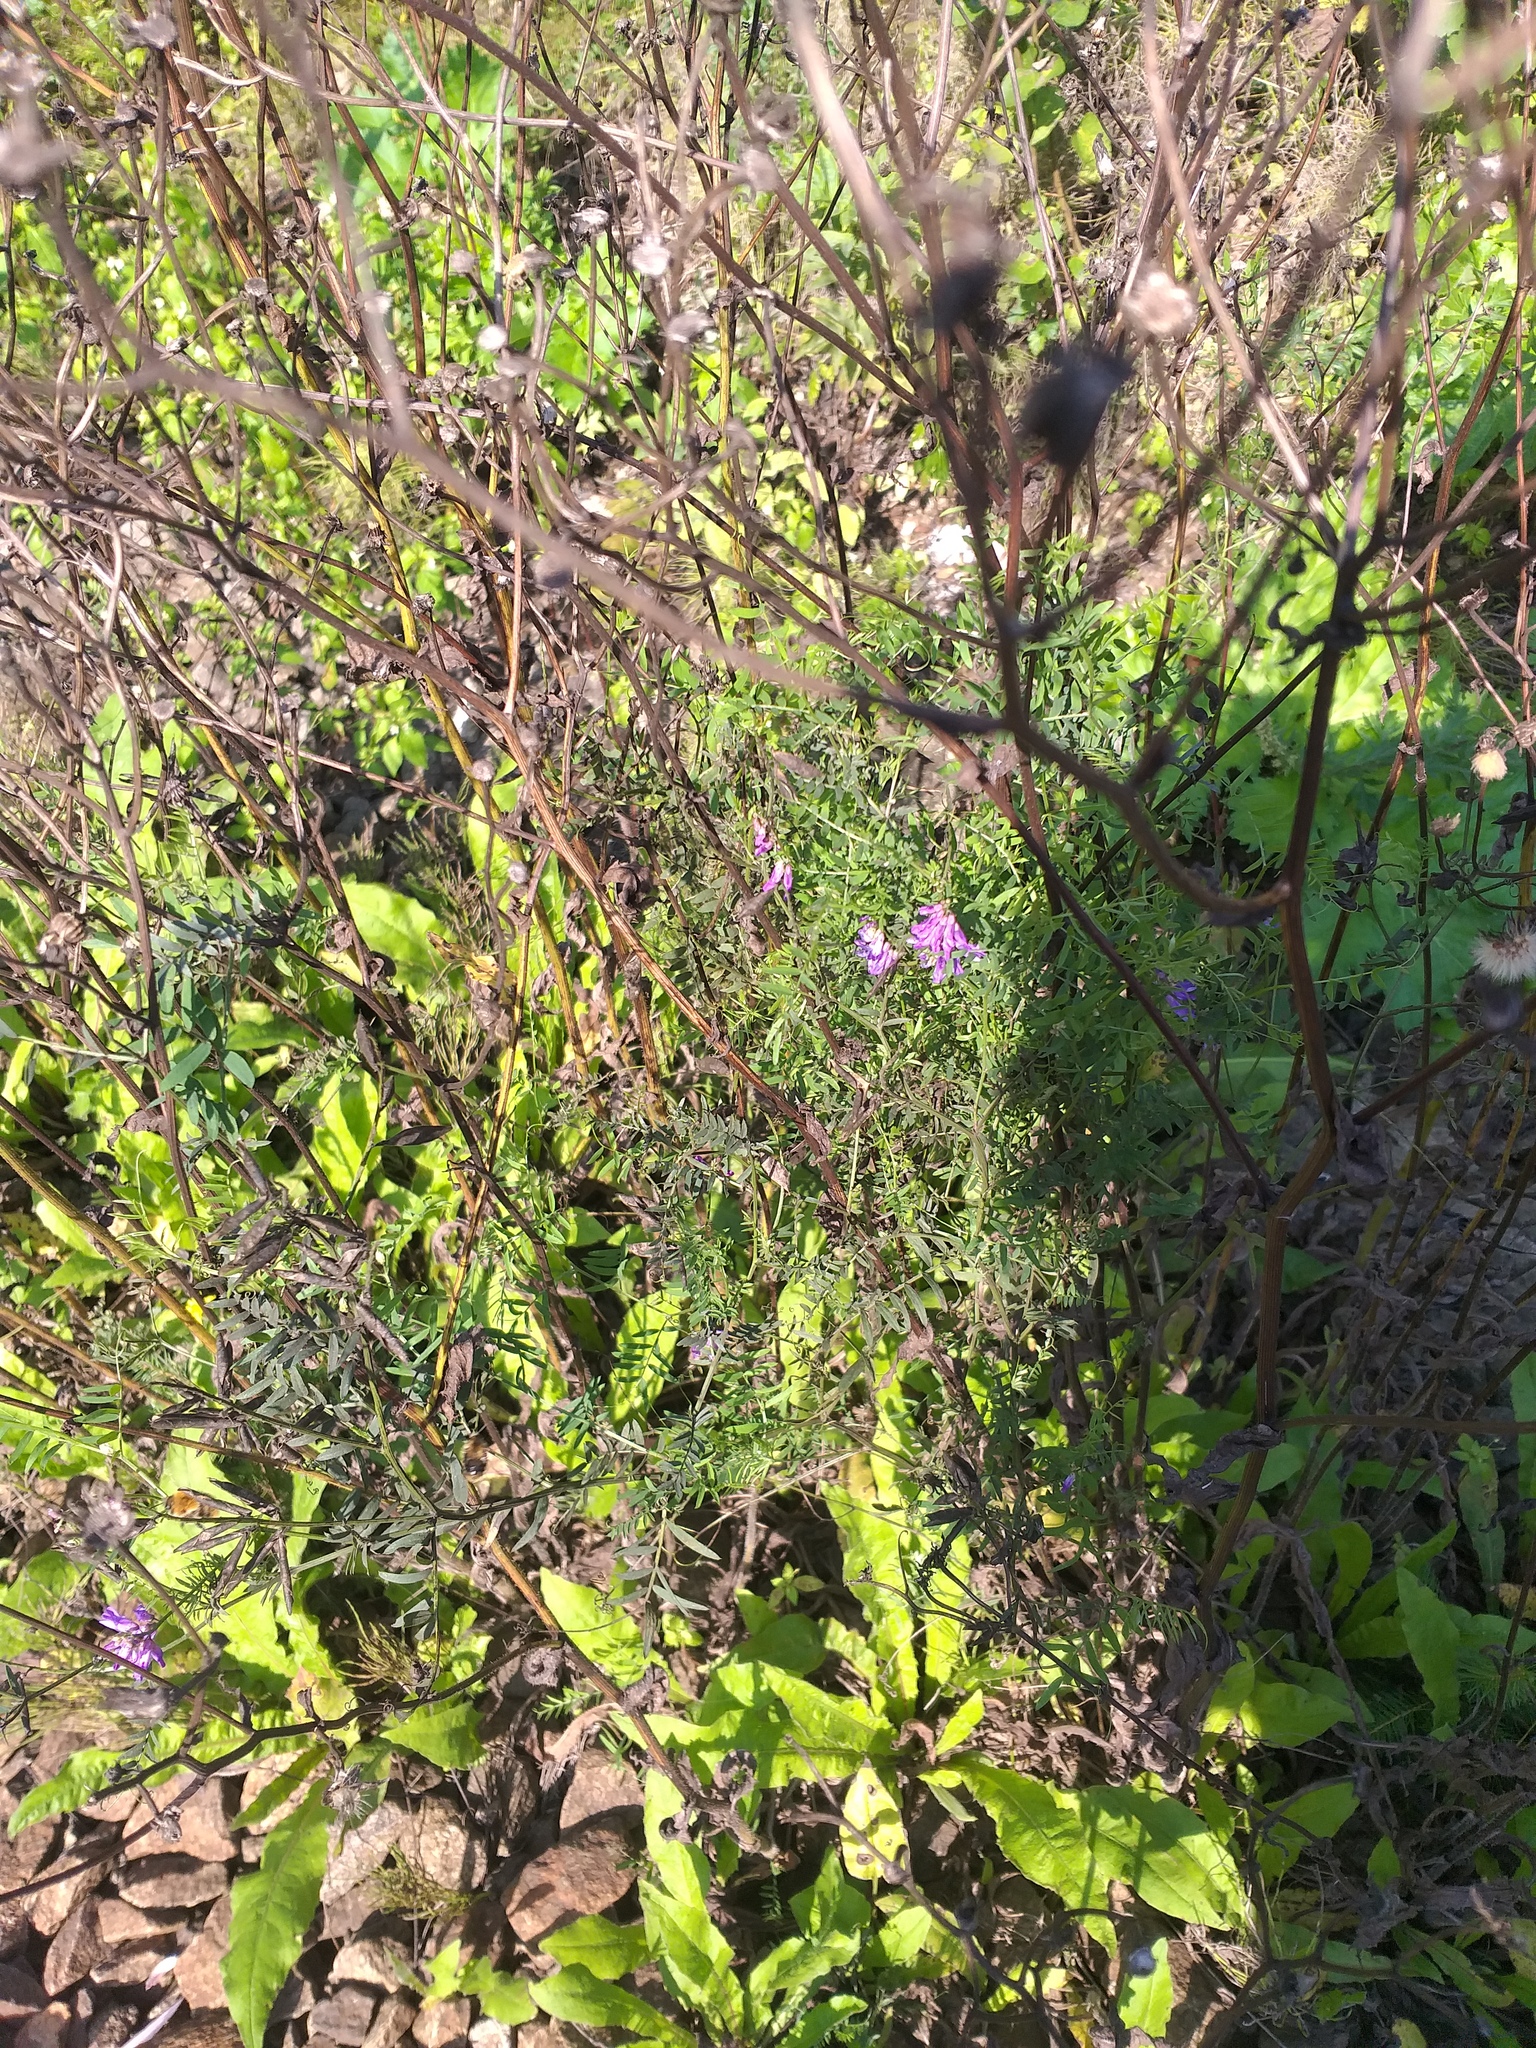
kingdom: Plantae
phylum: Tracheophyta
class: Magnoliopsida
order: Fabales
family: Fabaceae
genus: Vicia
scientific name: Vicia cracca
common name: Bird vetch
